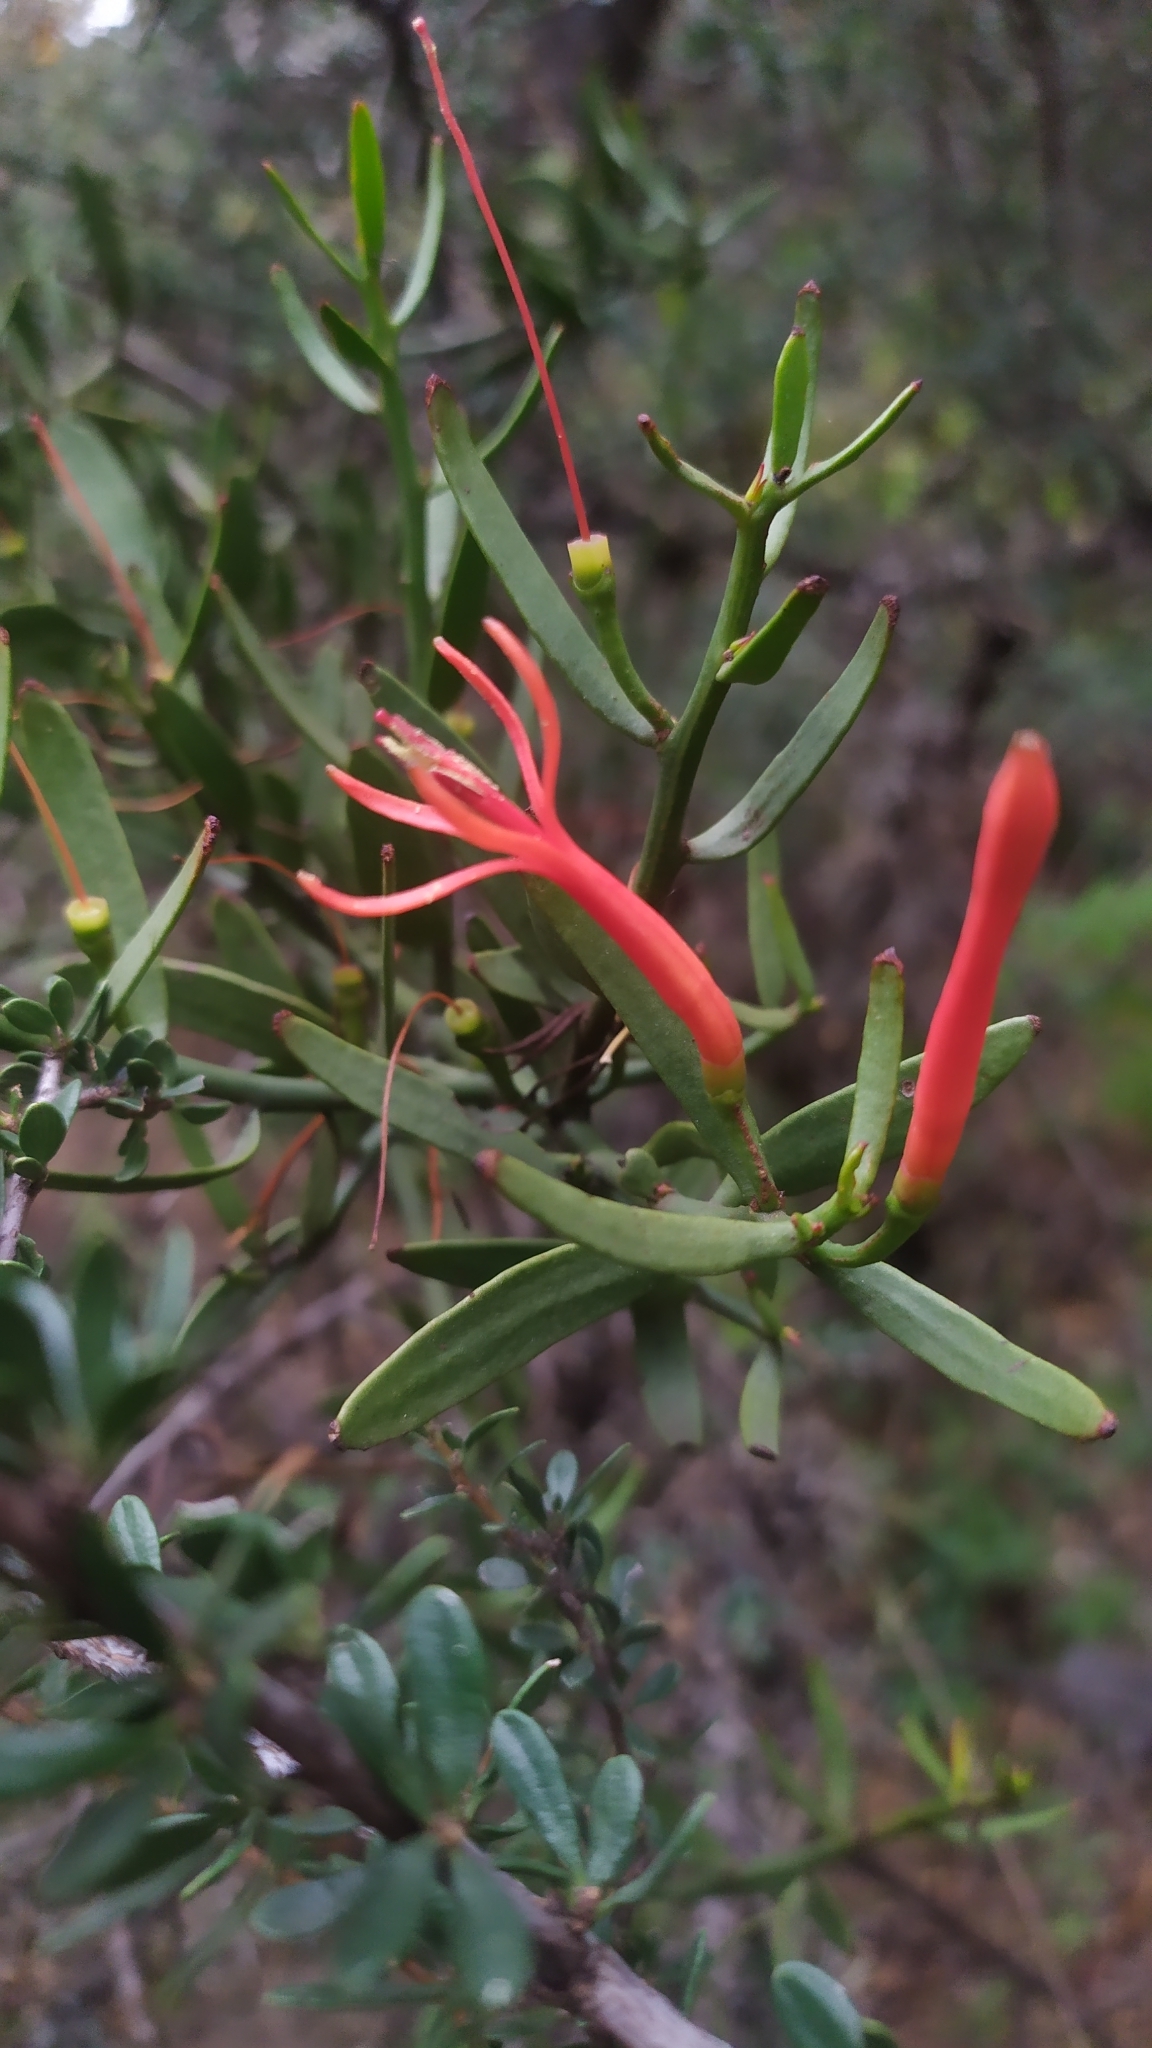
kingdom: Plantae
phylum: Tracheophyta
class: Magnoliopsida
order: Santalales
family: Loranthaceae
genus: Ligaria
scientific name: Ligaria cuneifolia
